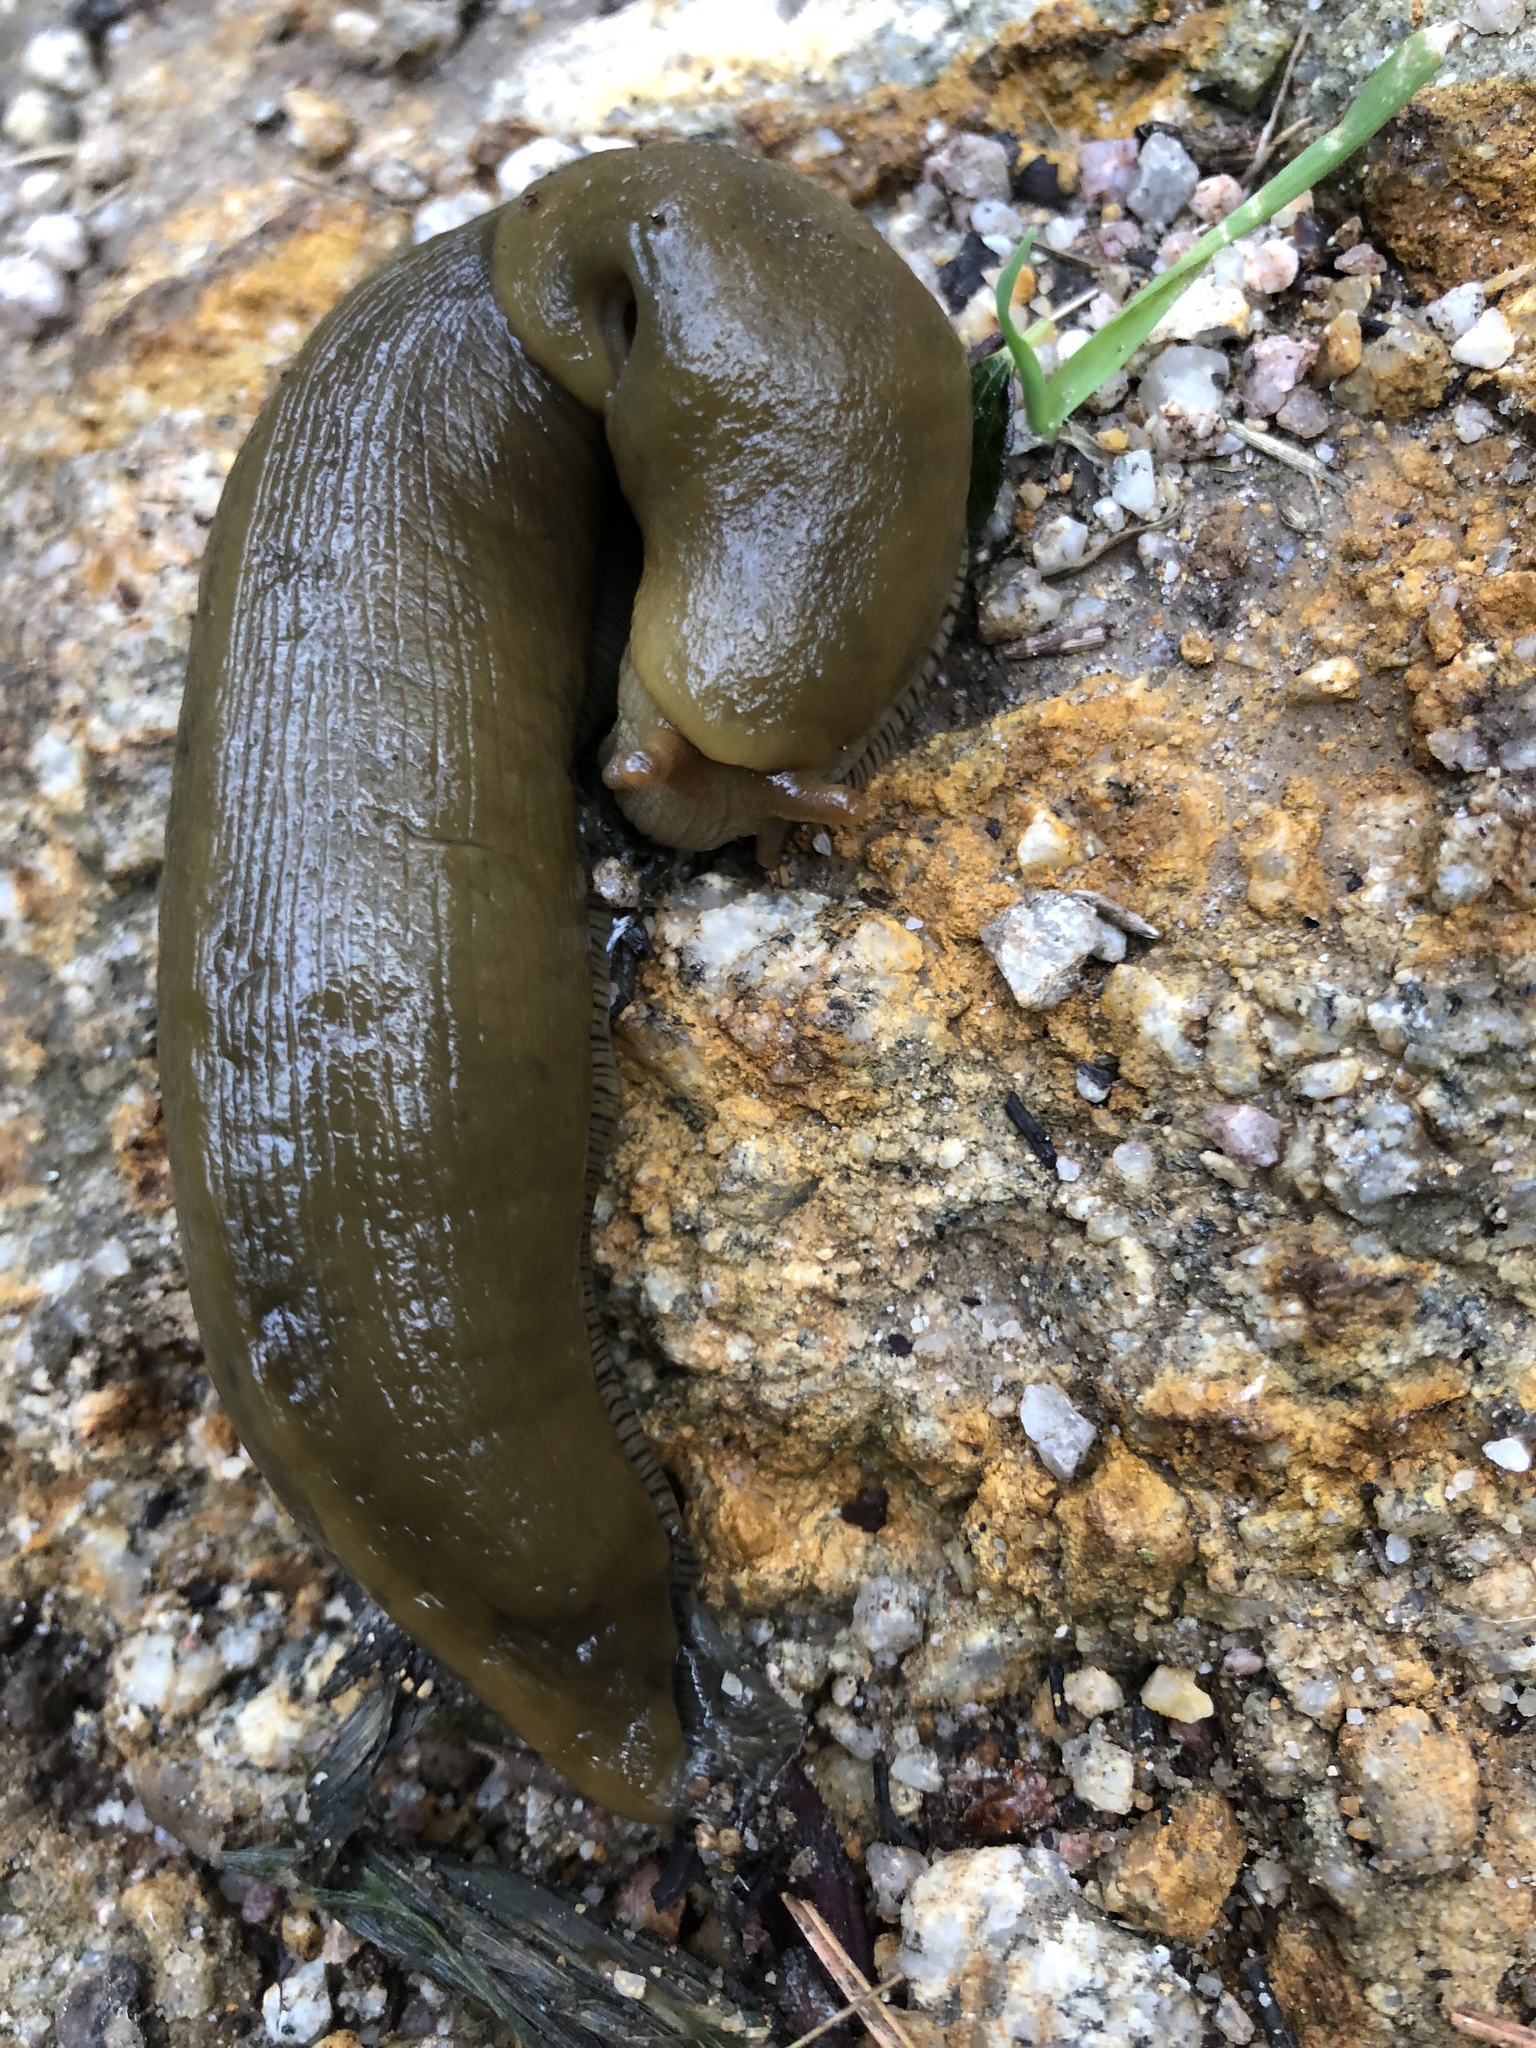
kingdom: Animalia
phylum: Mollusca
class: Gastropoda
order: Stylommatophora
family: Ariolimacidae
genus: Ariolimax
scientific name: Ariolimax buttoni
